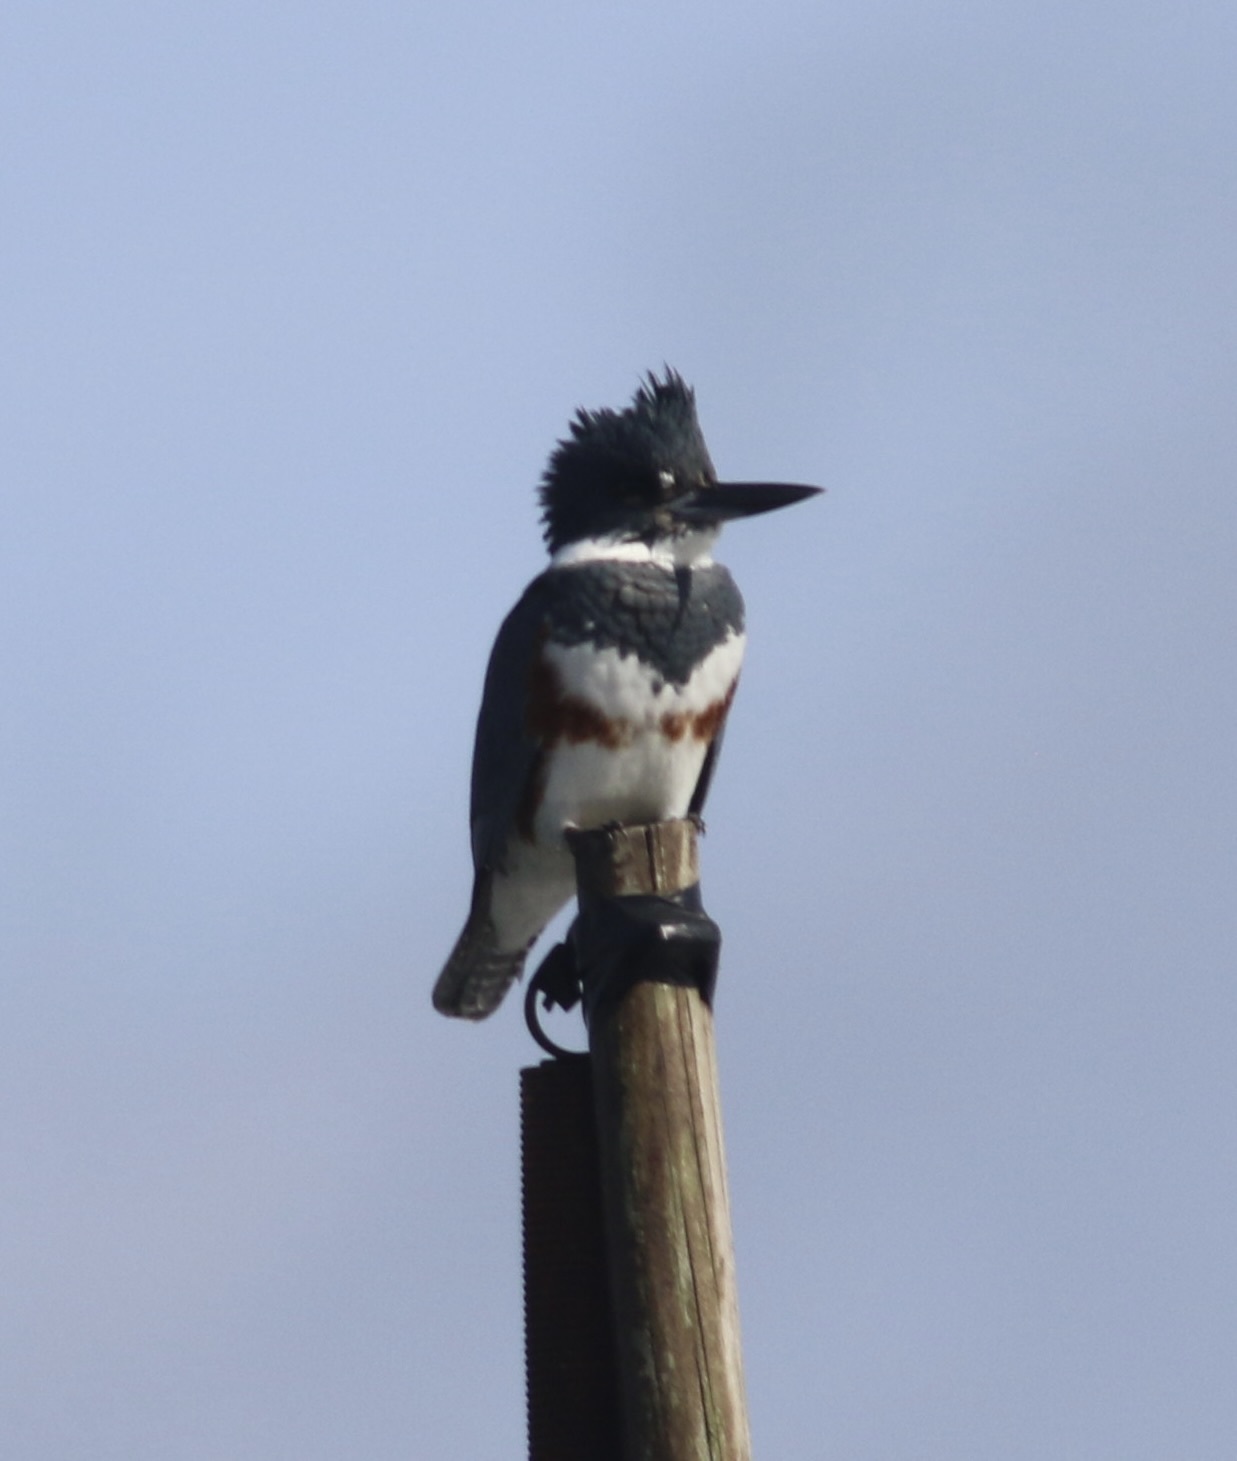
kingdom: Animalia
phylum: Chordata
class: Aves
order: Coraciiformes
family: Alcedinidae
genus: Megaceryle
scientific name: Megaceryle alcyon
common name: Belted kingfisher
